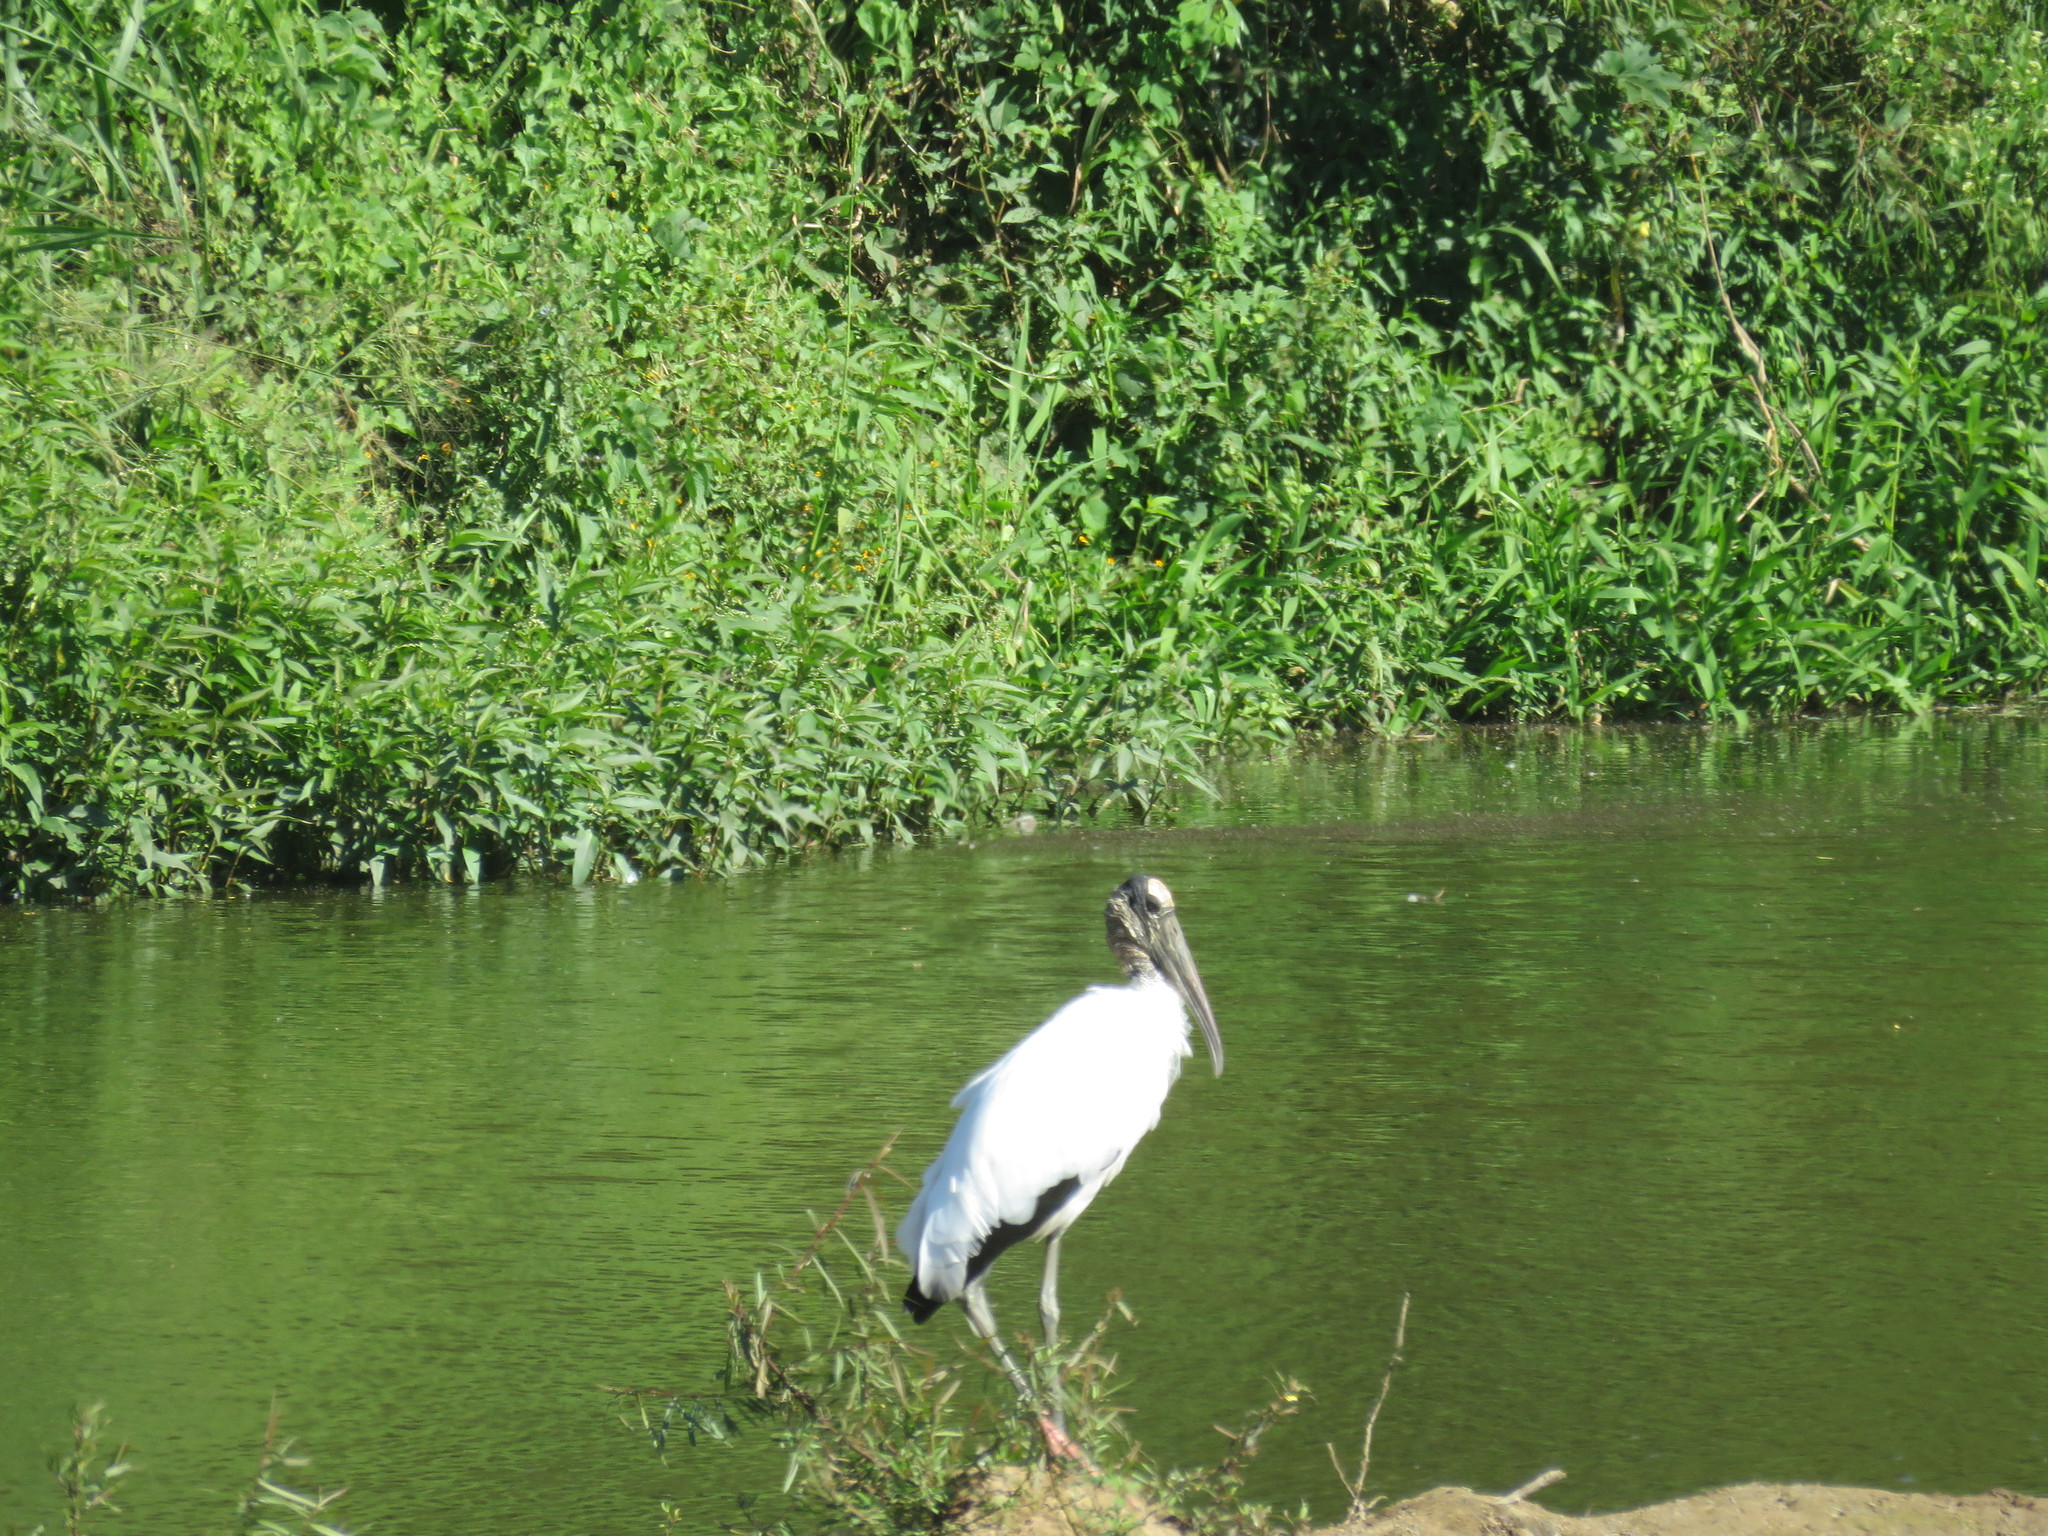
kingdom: Animalia
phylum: Chordata
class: Aves
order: Ciconiiformes
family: Ciconiidae
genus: Mycteria
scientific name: Mycteria americana
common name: Wood stork
